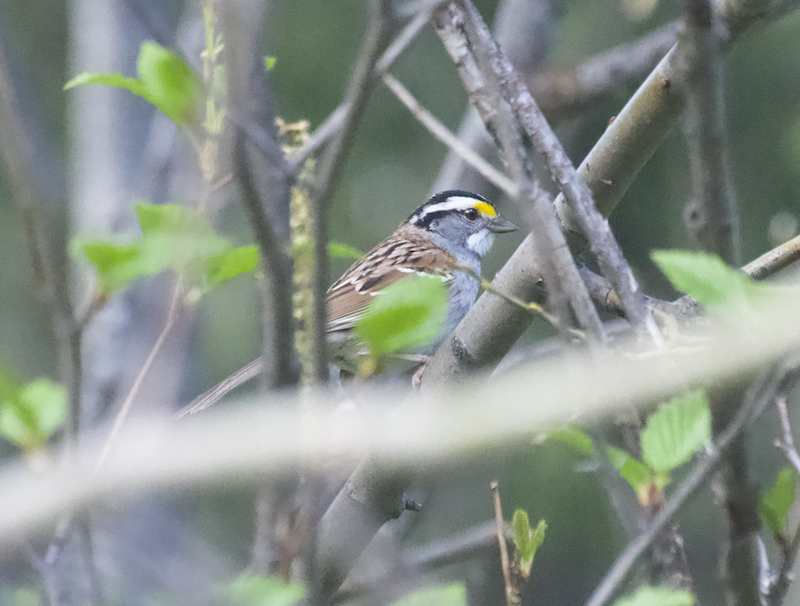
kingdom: Animalia
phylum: Chordata
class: Aves
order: Passeriformes
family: Passerellidae
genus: Zonotrichia
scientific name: Zonotrichia albicollis
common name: White-throated sparrow
